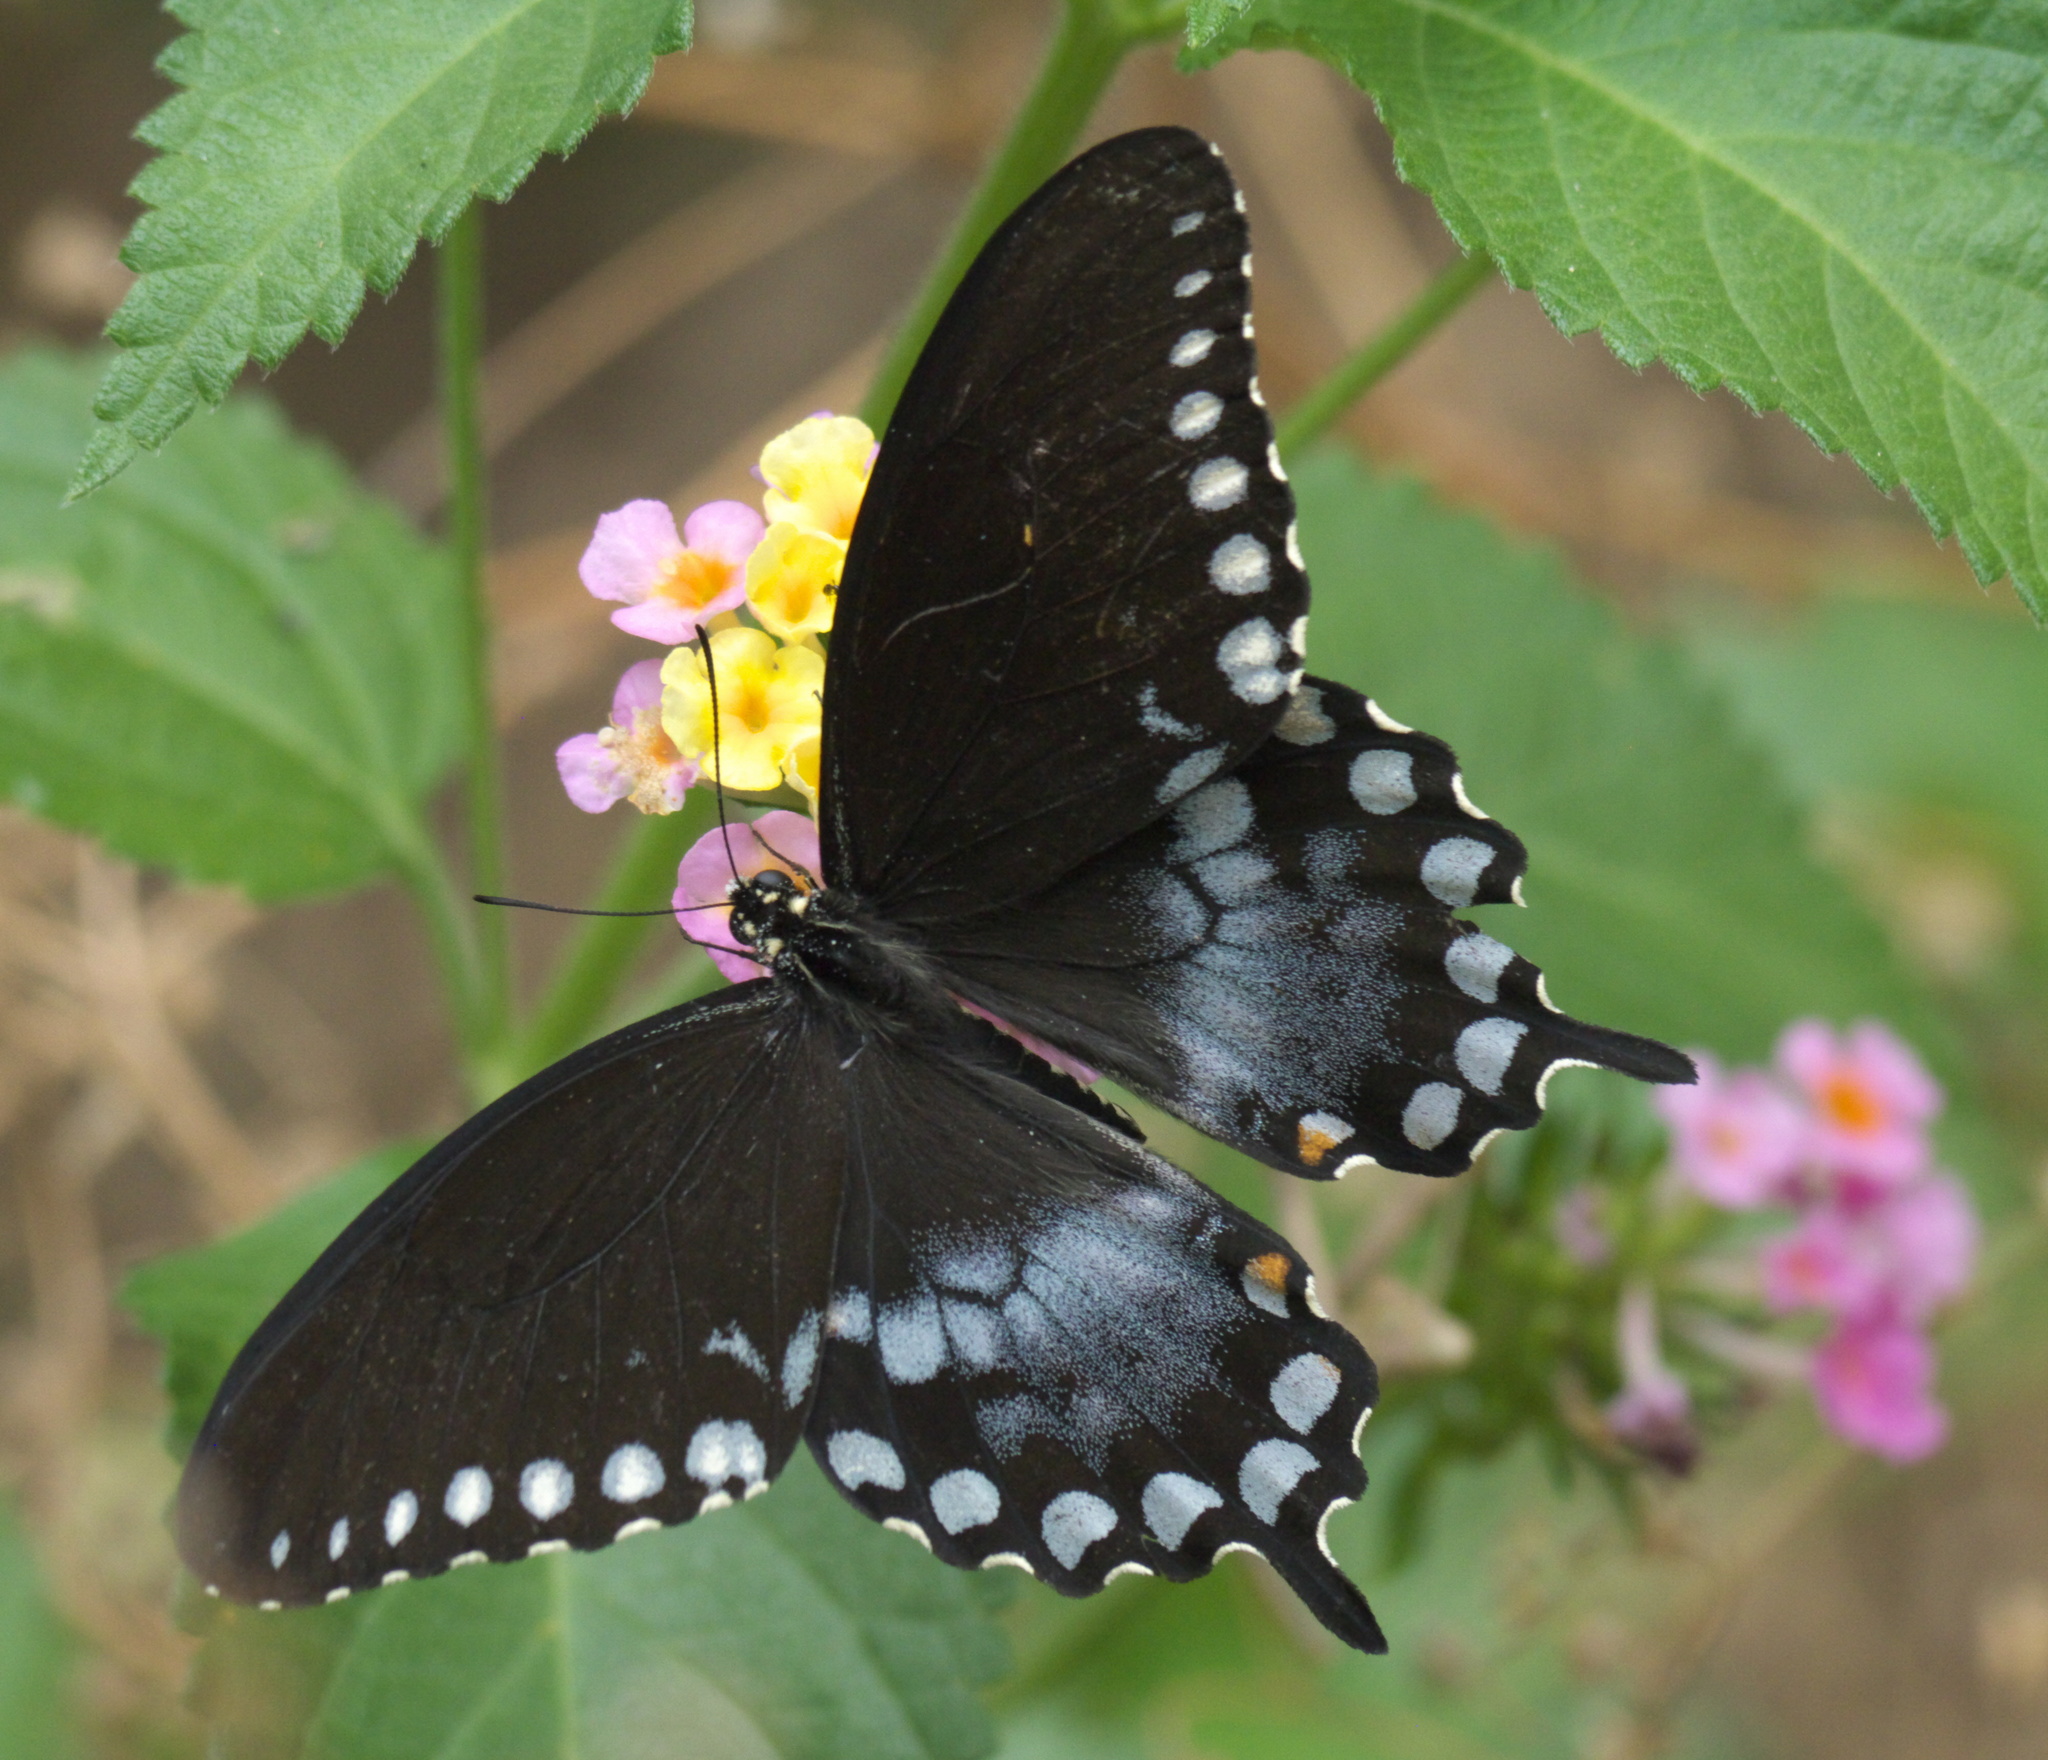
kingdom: Animalia
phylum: Arthropoda
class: Insecta
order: Lepidoptera
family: Papilionidae
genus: Papilio
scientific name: Papilio troilus
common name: Spicebush swallowtail
